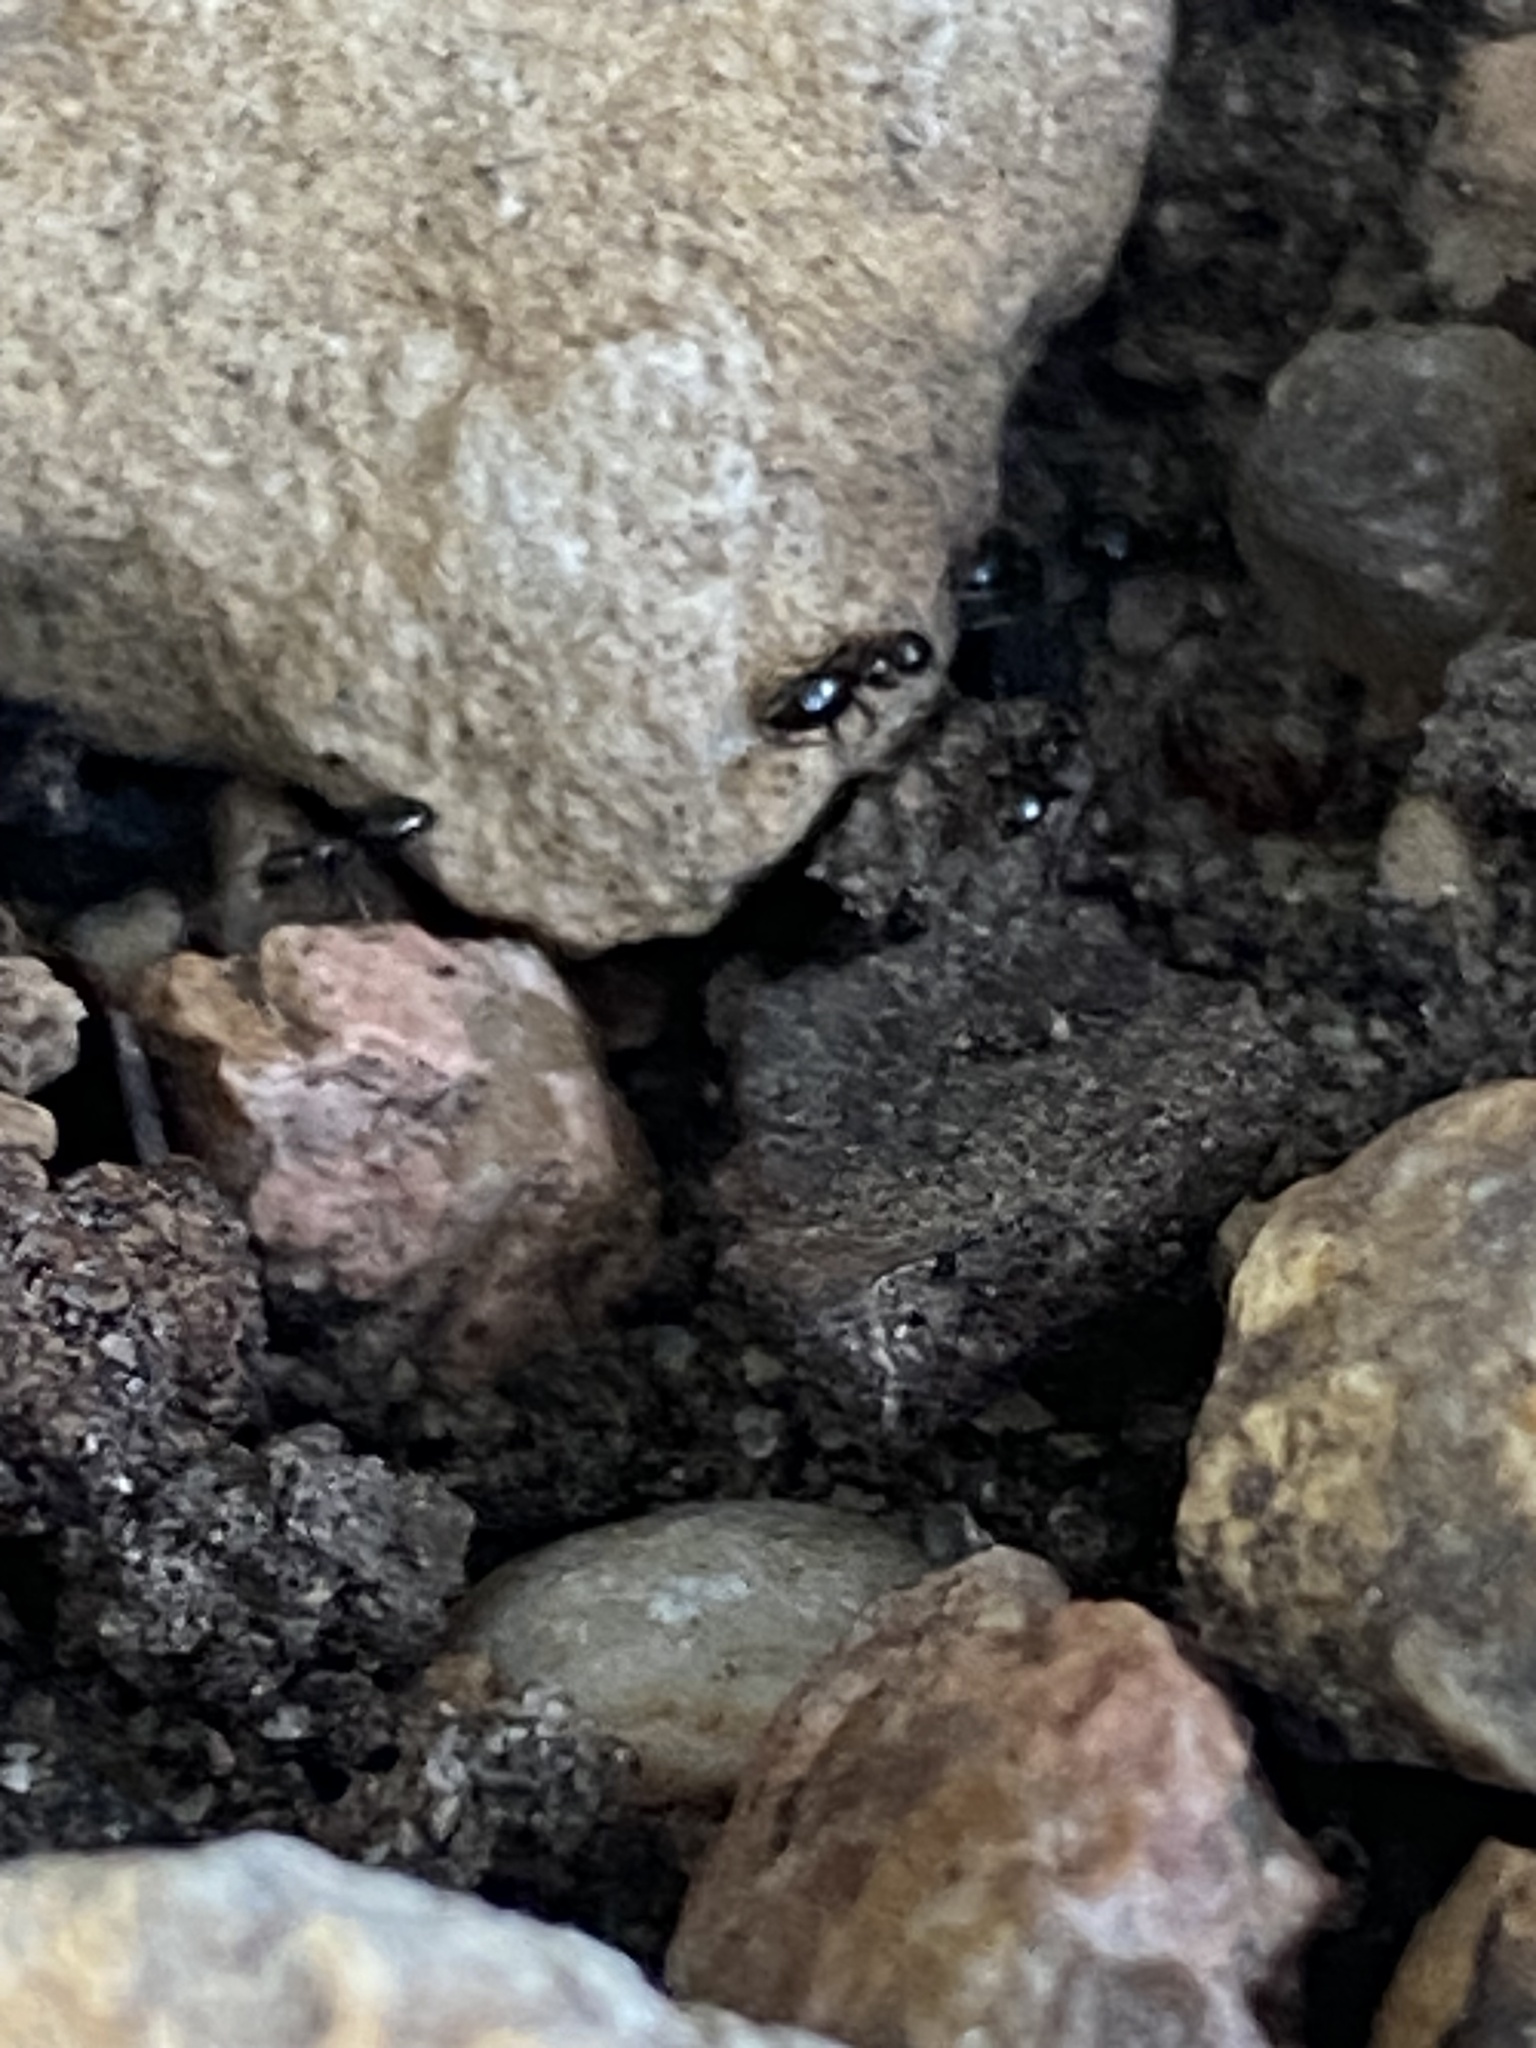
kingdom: Animalia
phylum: Arthropoda
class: Insecta
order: Hymenoptera
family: Formicidae
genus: Brachymyrmex
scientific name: Brachymyrmex patagonicus
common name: Dark rover ant
